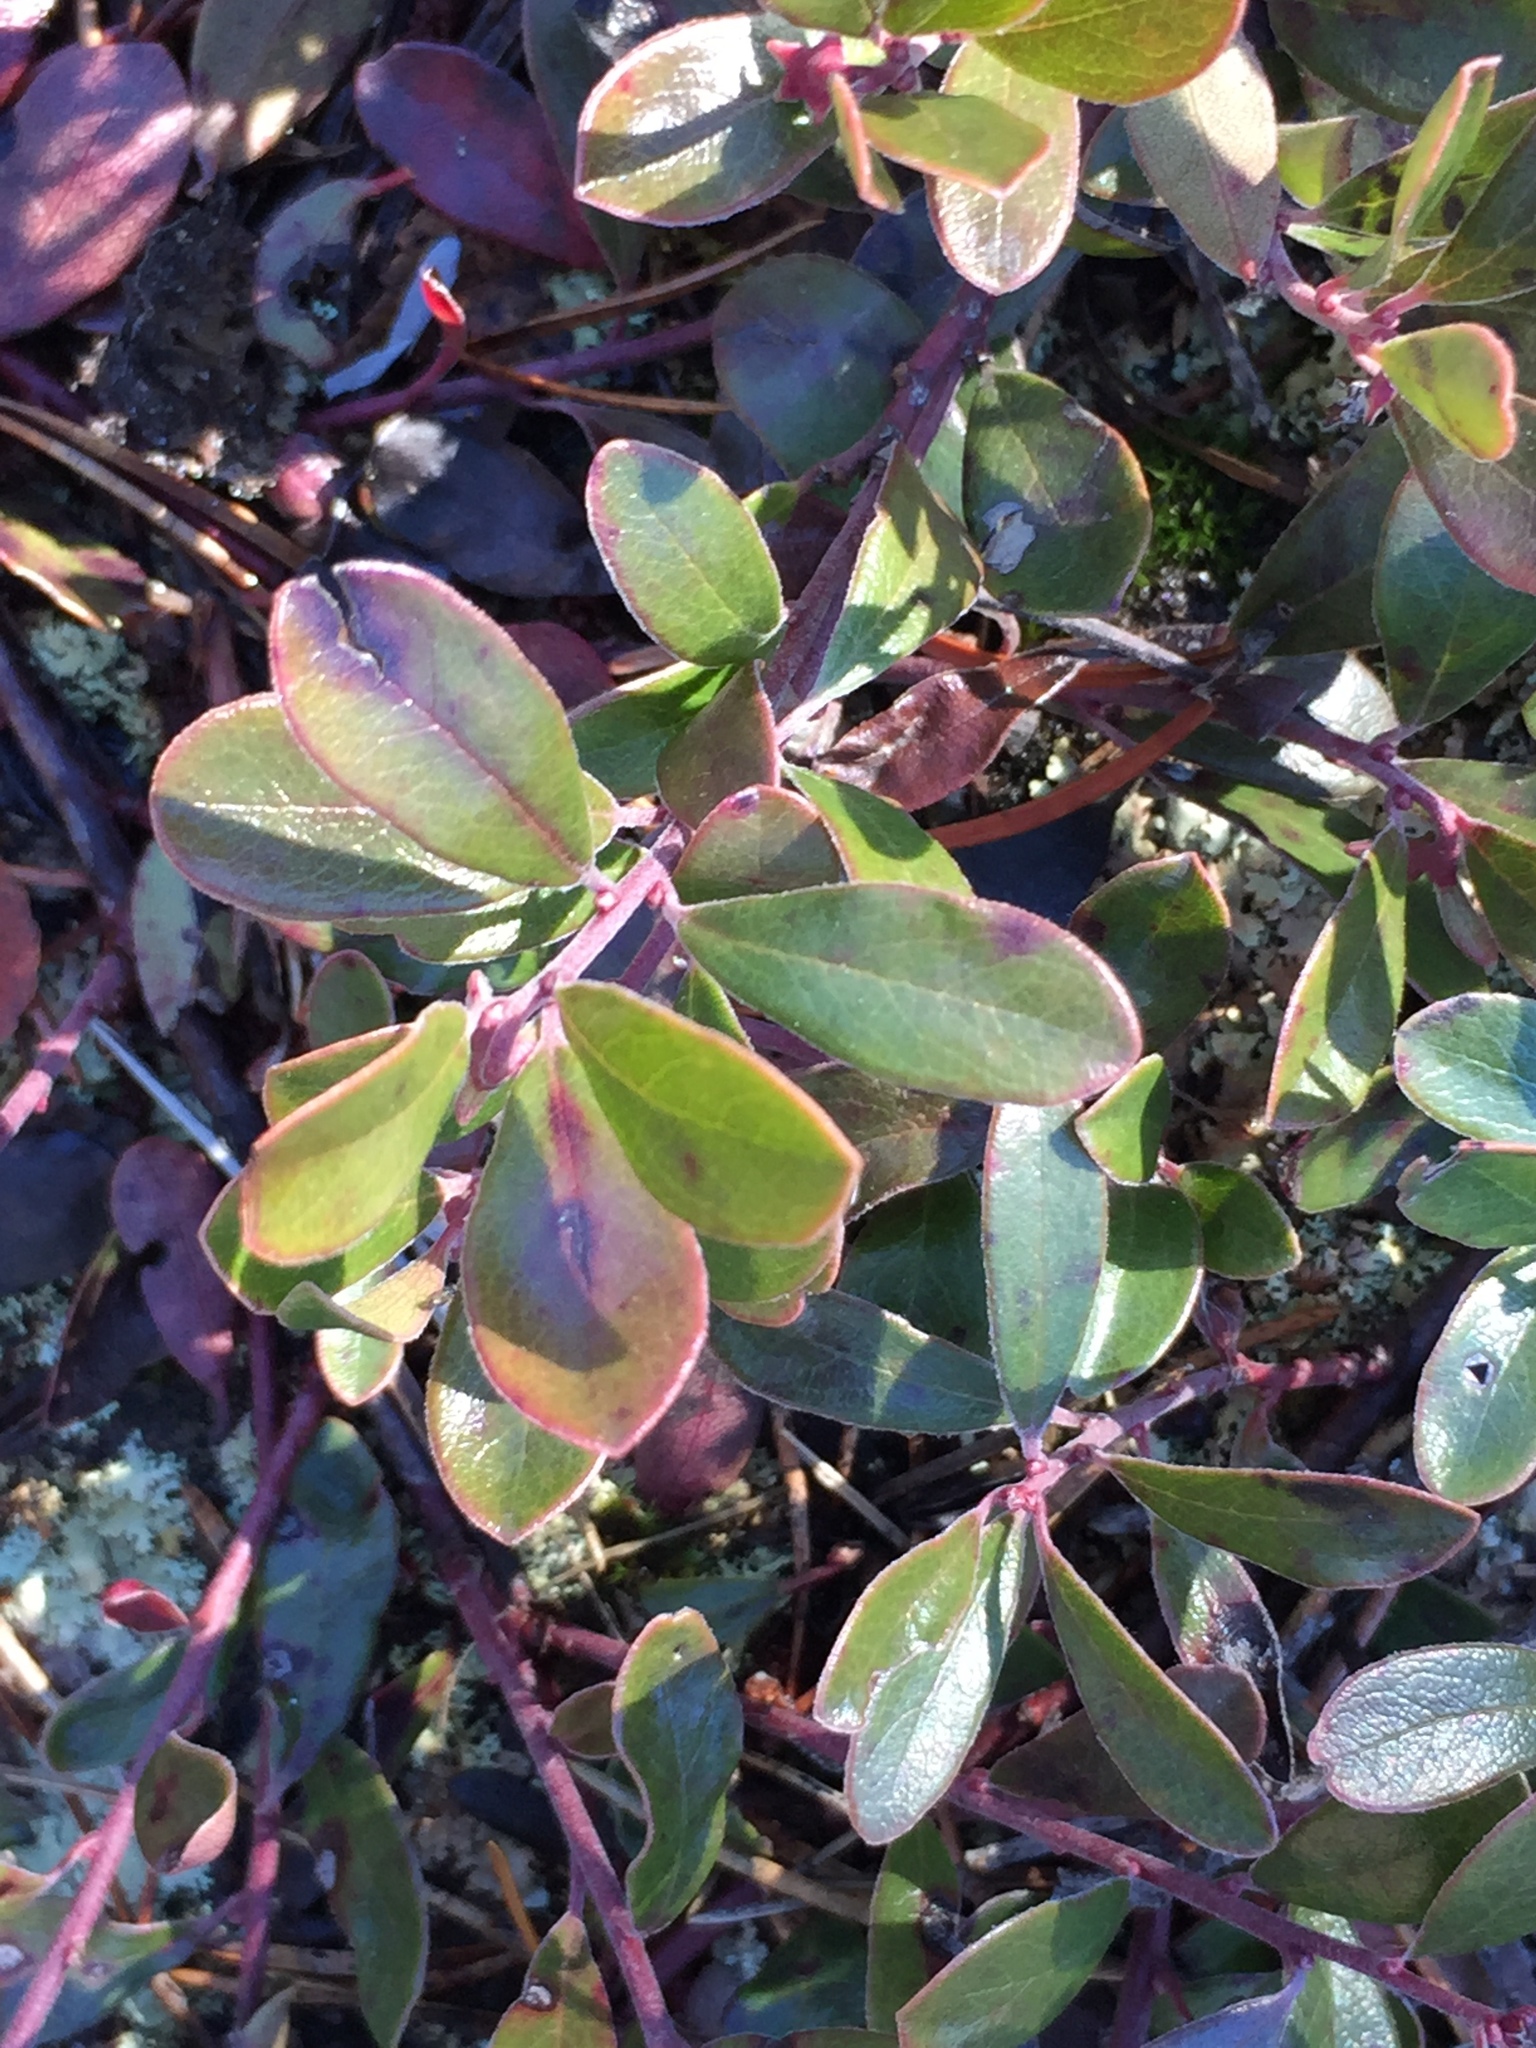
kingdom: Plantae
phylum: Tracheophyta
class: Magnoliopsida
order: Ericales
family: Ericaceae
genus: Arctostaphylos
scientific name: Arctostaphylos uva-ursi
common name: Bearberry
